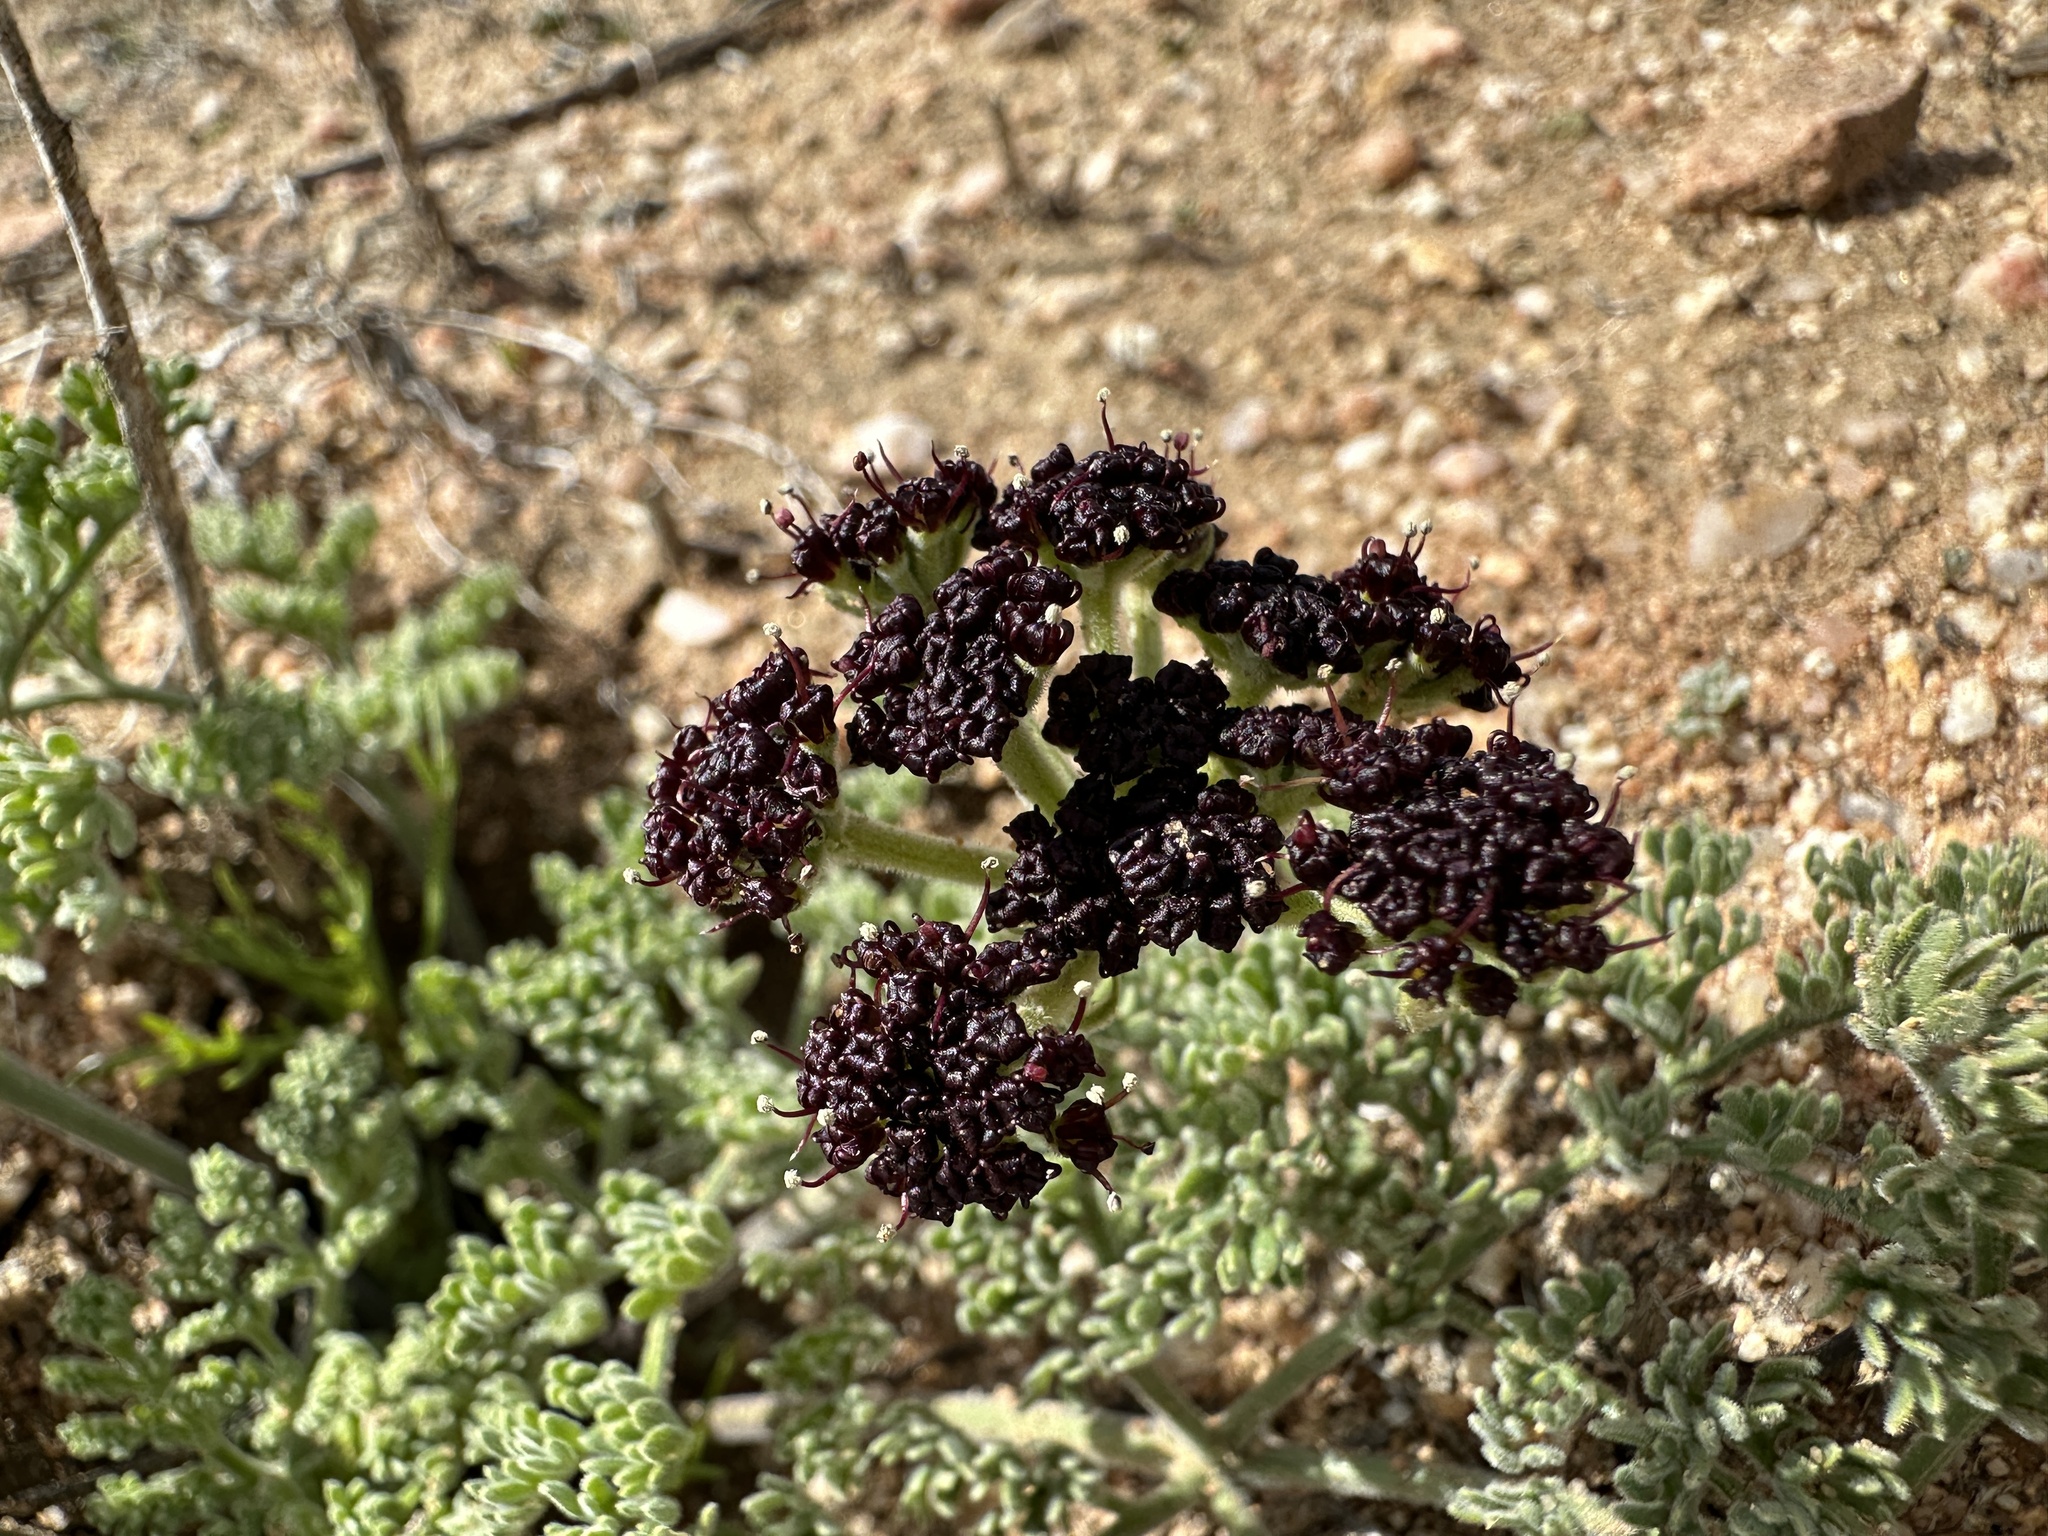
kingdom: Plantae
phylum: Tracheophyta
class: Magnoliopsida
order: Apiales
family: Apiaceae
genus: Lomatium
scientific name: Lomatium mohavense
